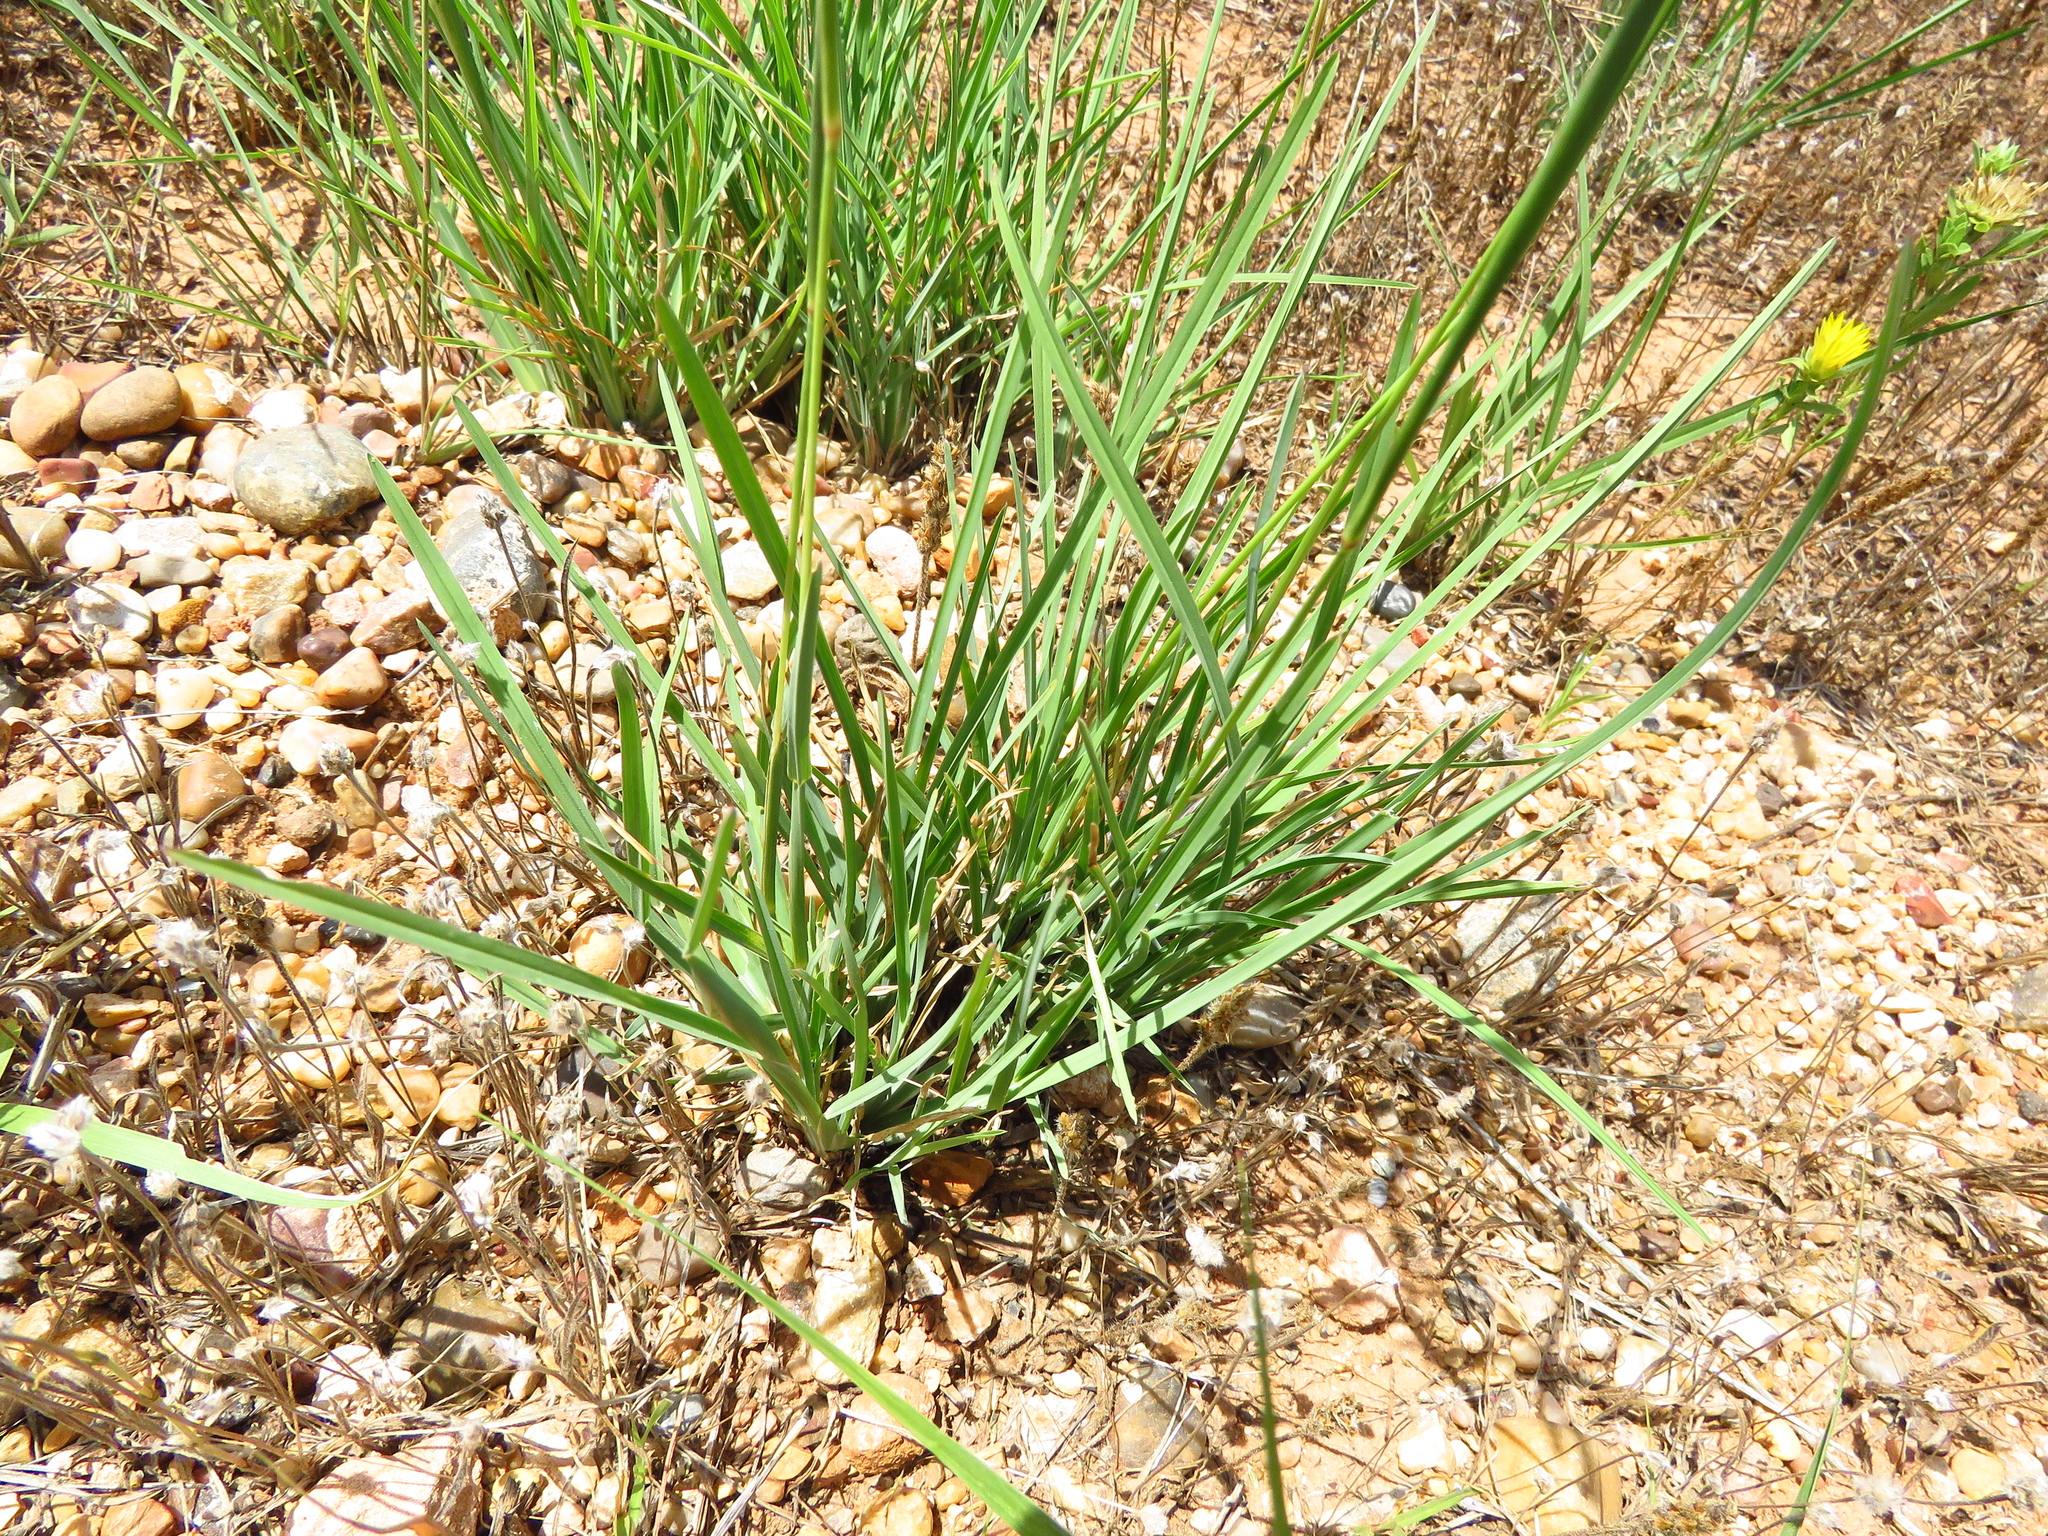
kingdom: Plantae
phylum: Tracheophyta
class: Liliopsida
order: Poales
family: Poaceae
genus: Chloris
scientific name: Chloris cucullata
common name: Hooded windmill grass
